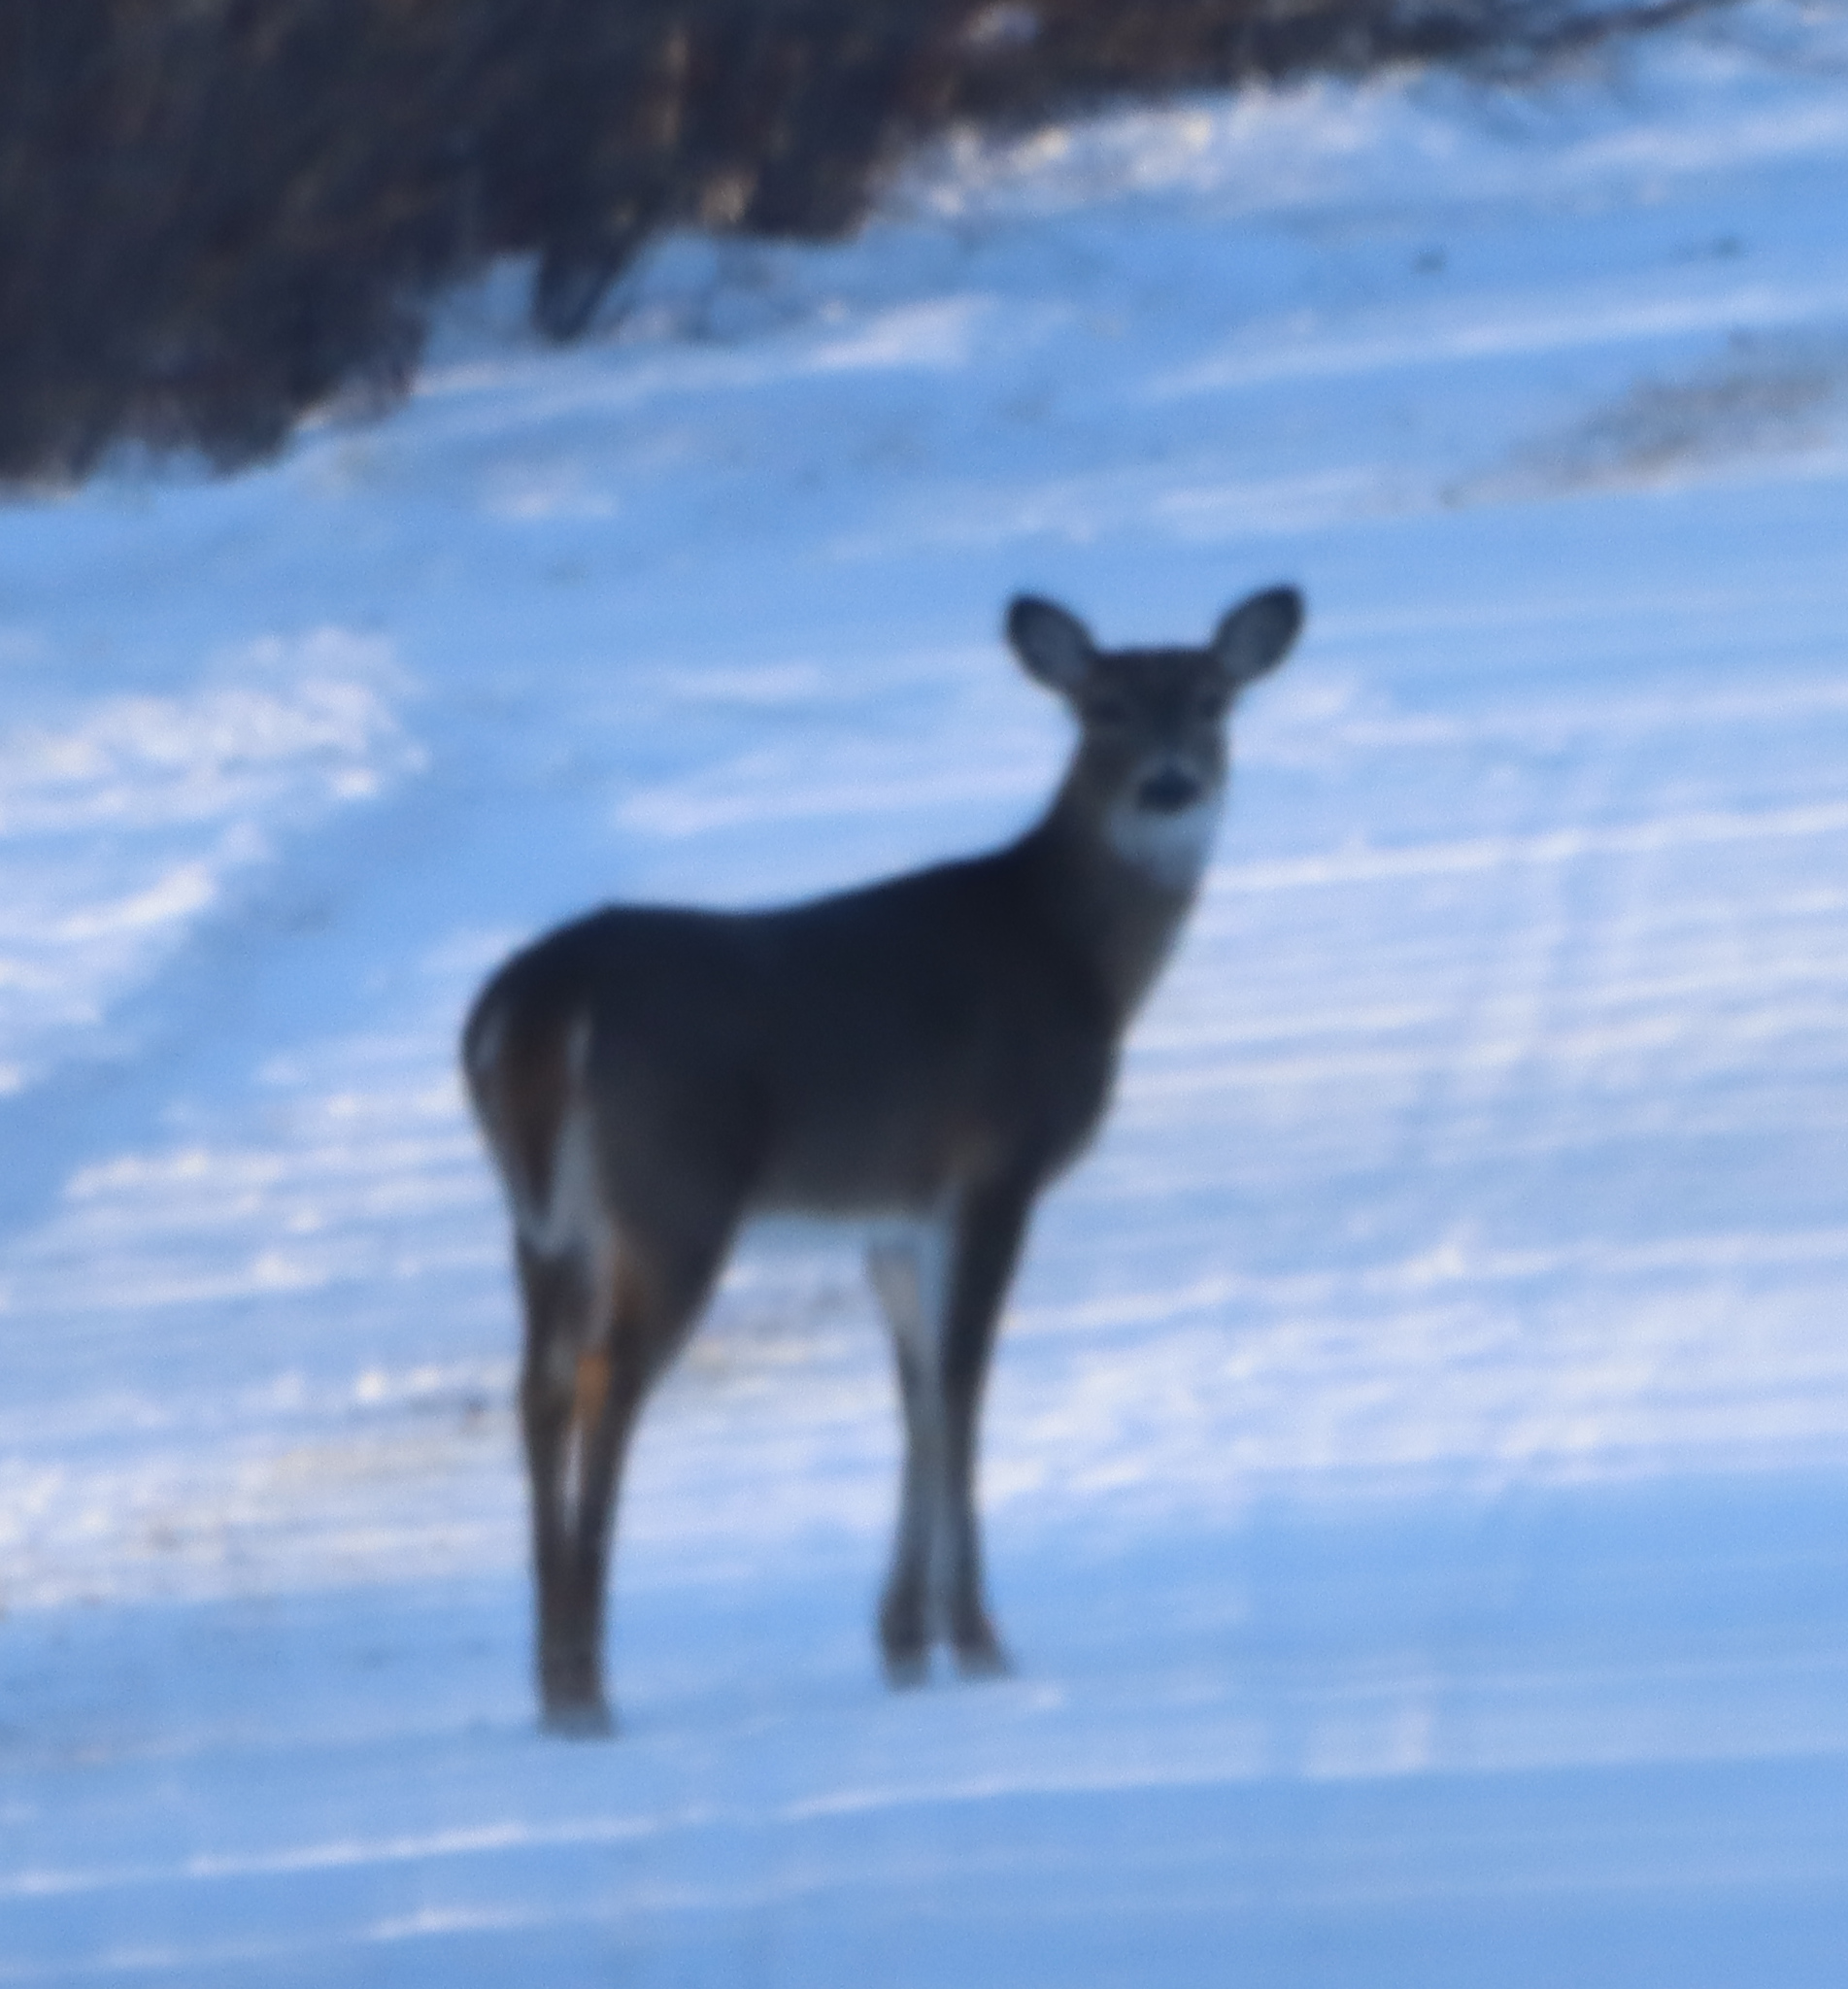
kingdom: Animalia
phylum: Chordata
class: Mammalia
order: Artiodactyla
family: Cervidae
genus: Odocoileus
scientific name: Odocoileus virginianus
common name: White-tailed deer
